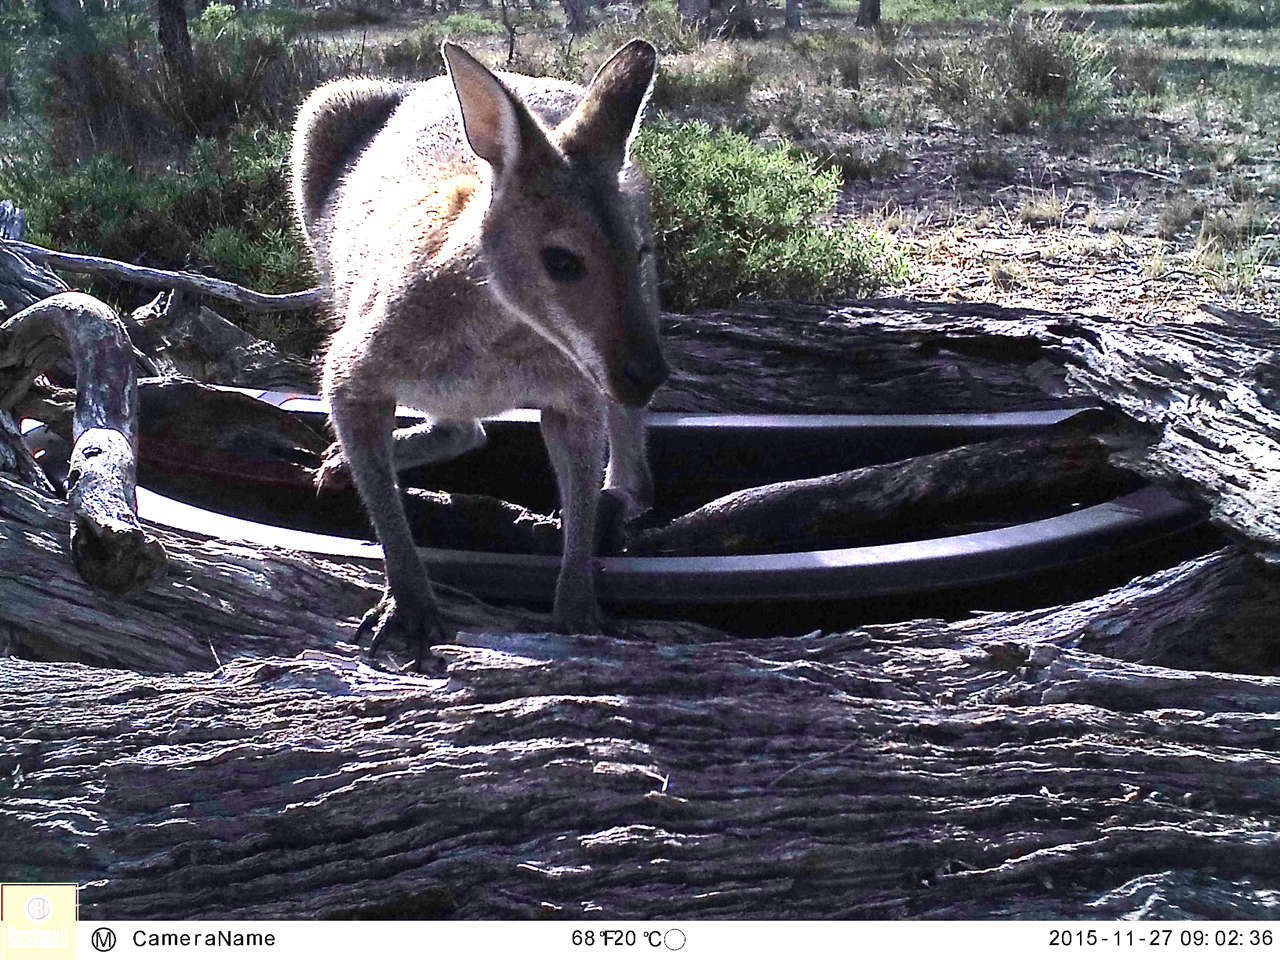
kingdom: Animalia
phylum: Chordata
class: Mammalia
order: Diprotodontia
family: Macropodidae
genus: Notamacropus
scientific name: Notamacropus rufogriseus
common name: Red-necked wallaby
